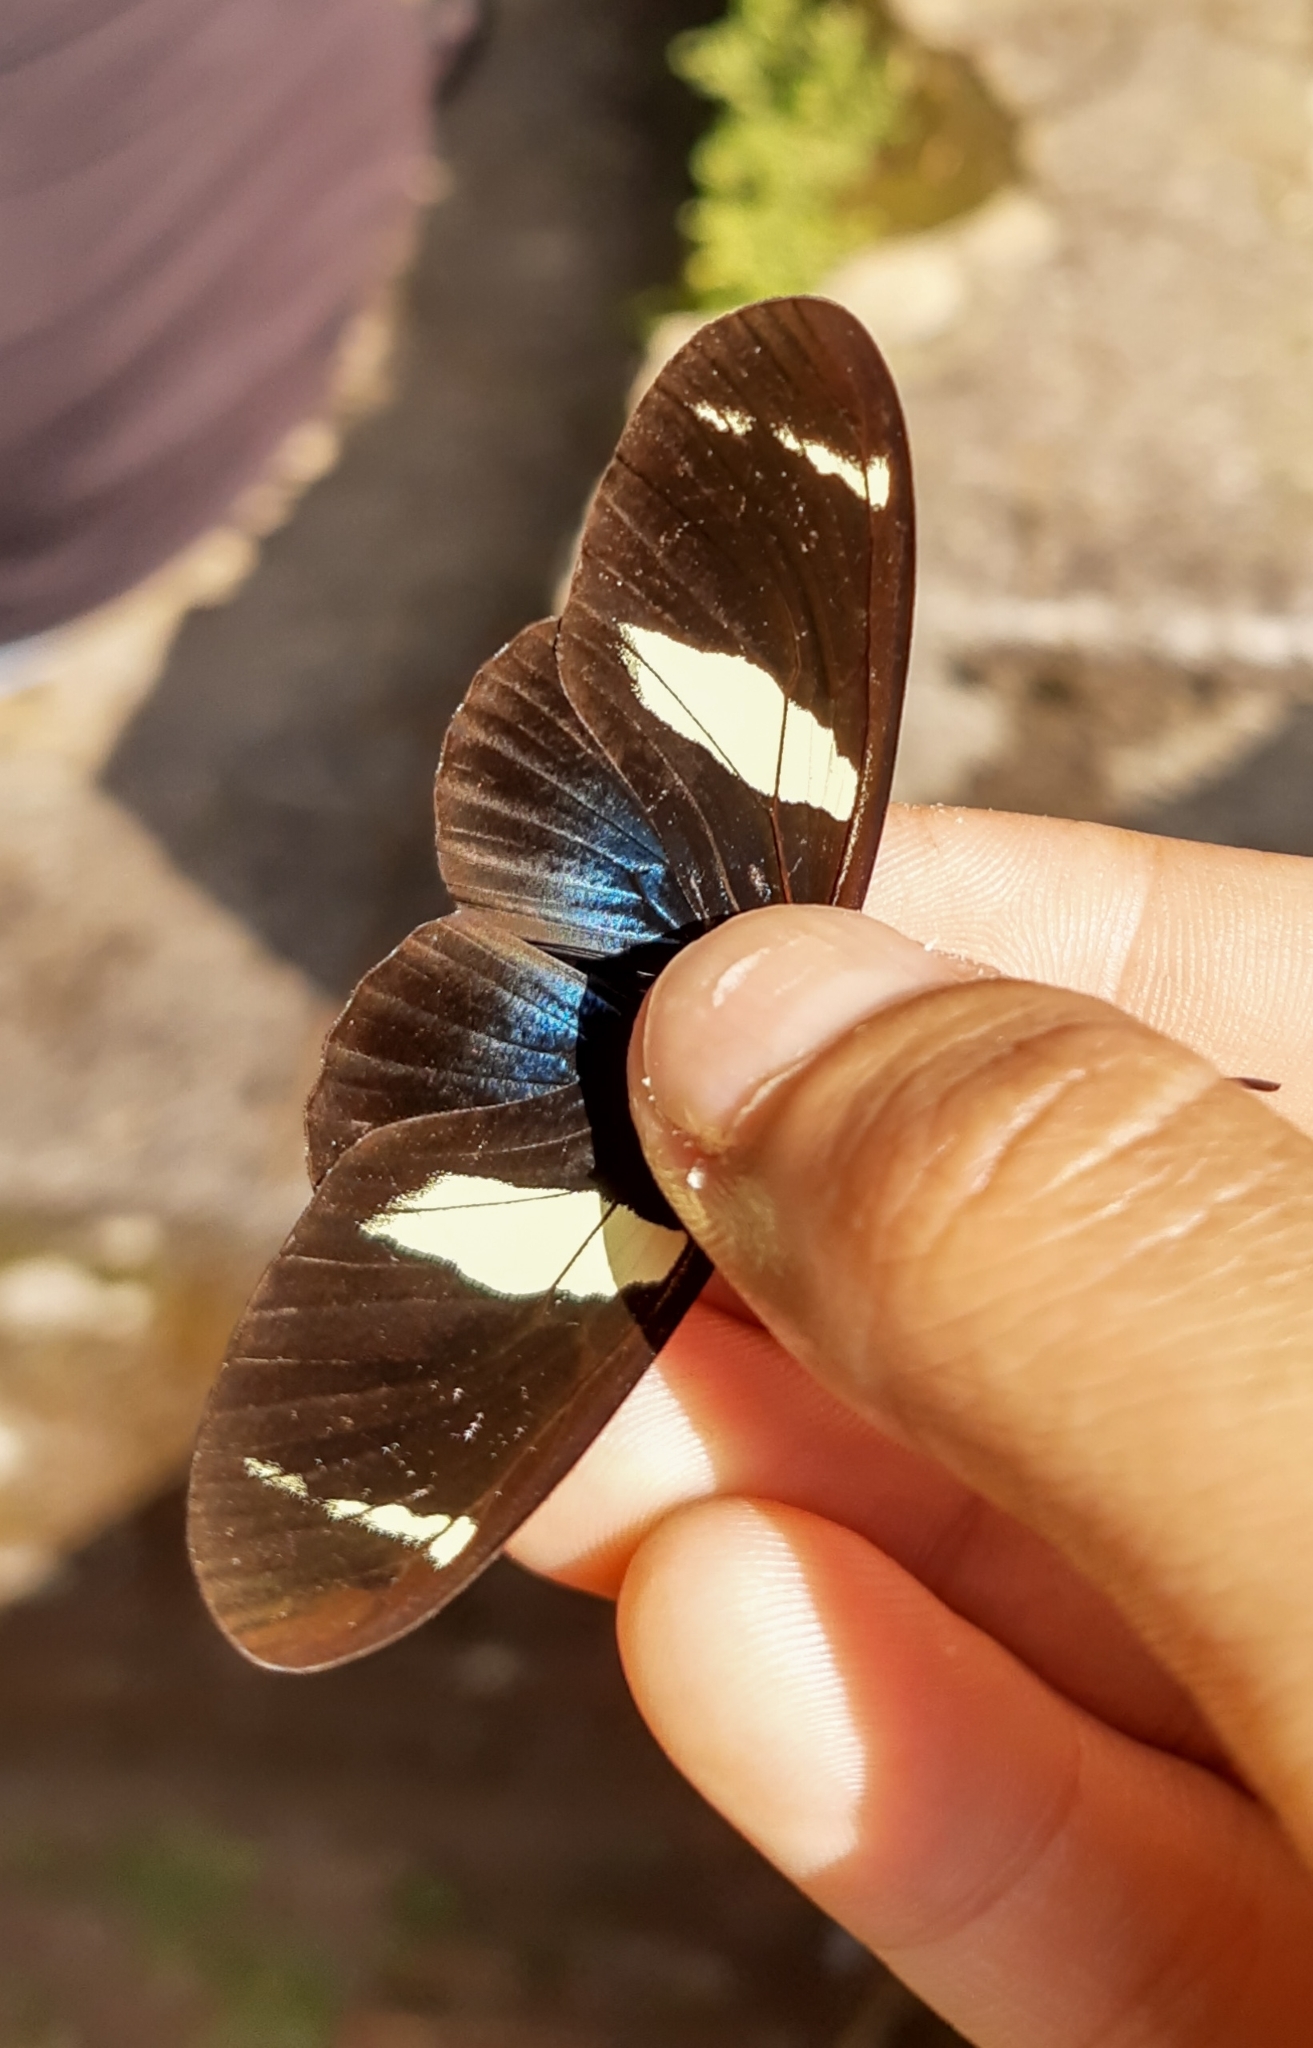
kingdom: Animalia
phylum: Arthropoda
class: Insecta
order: Lepidoptera
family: Nymphalidae
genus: Heliconius
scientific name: Heliconius sara
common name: Sara longwing
